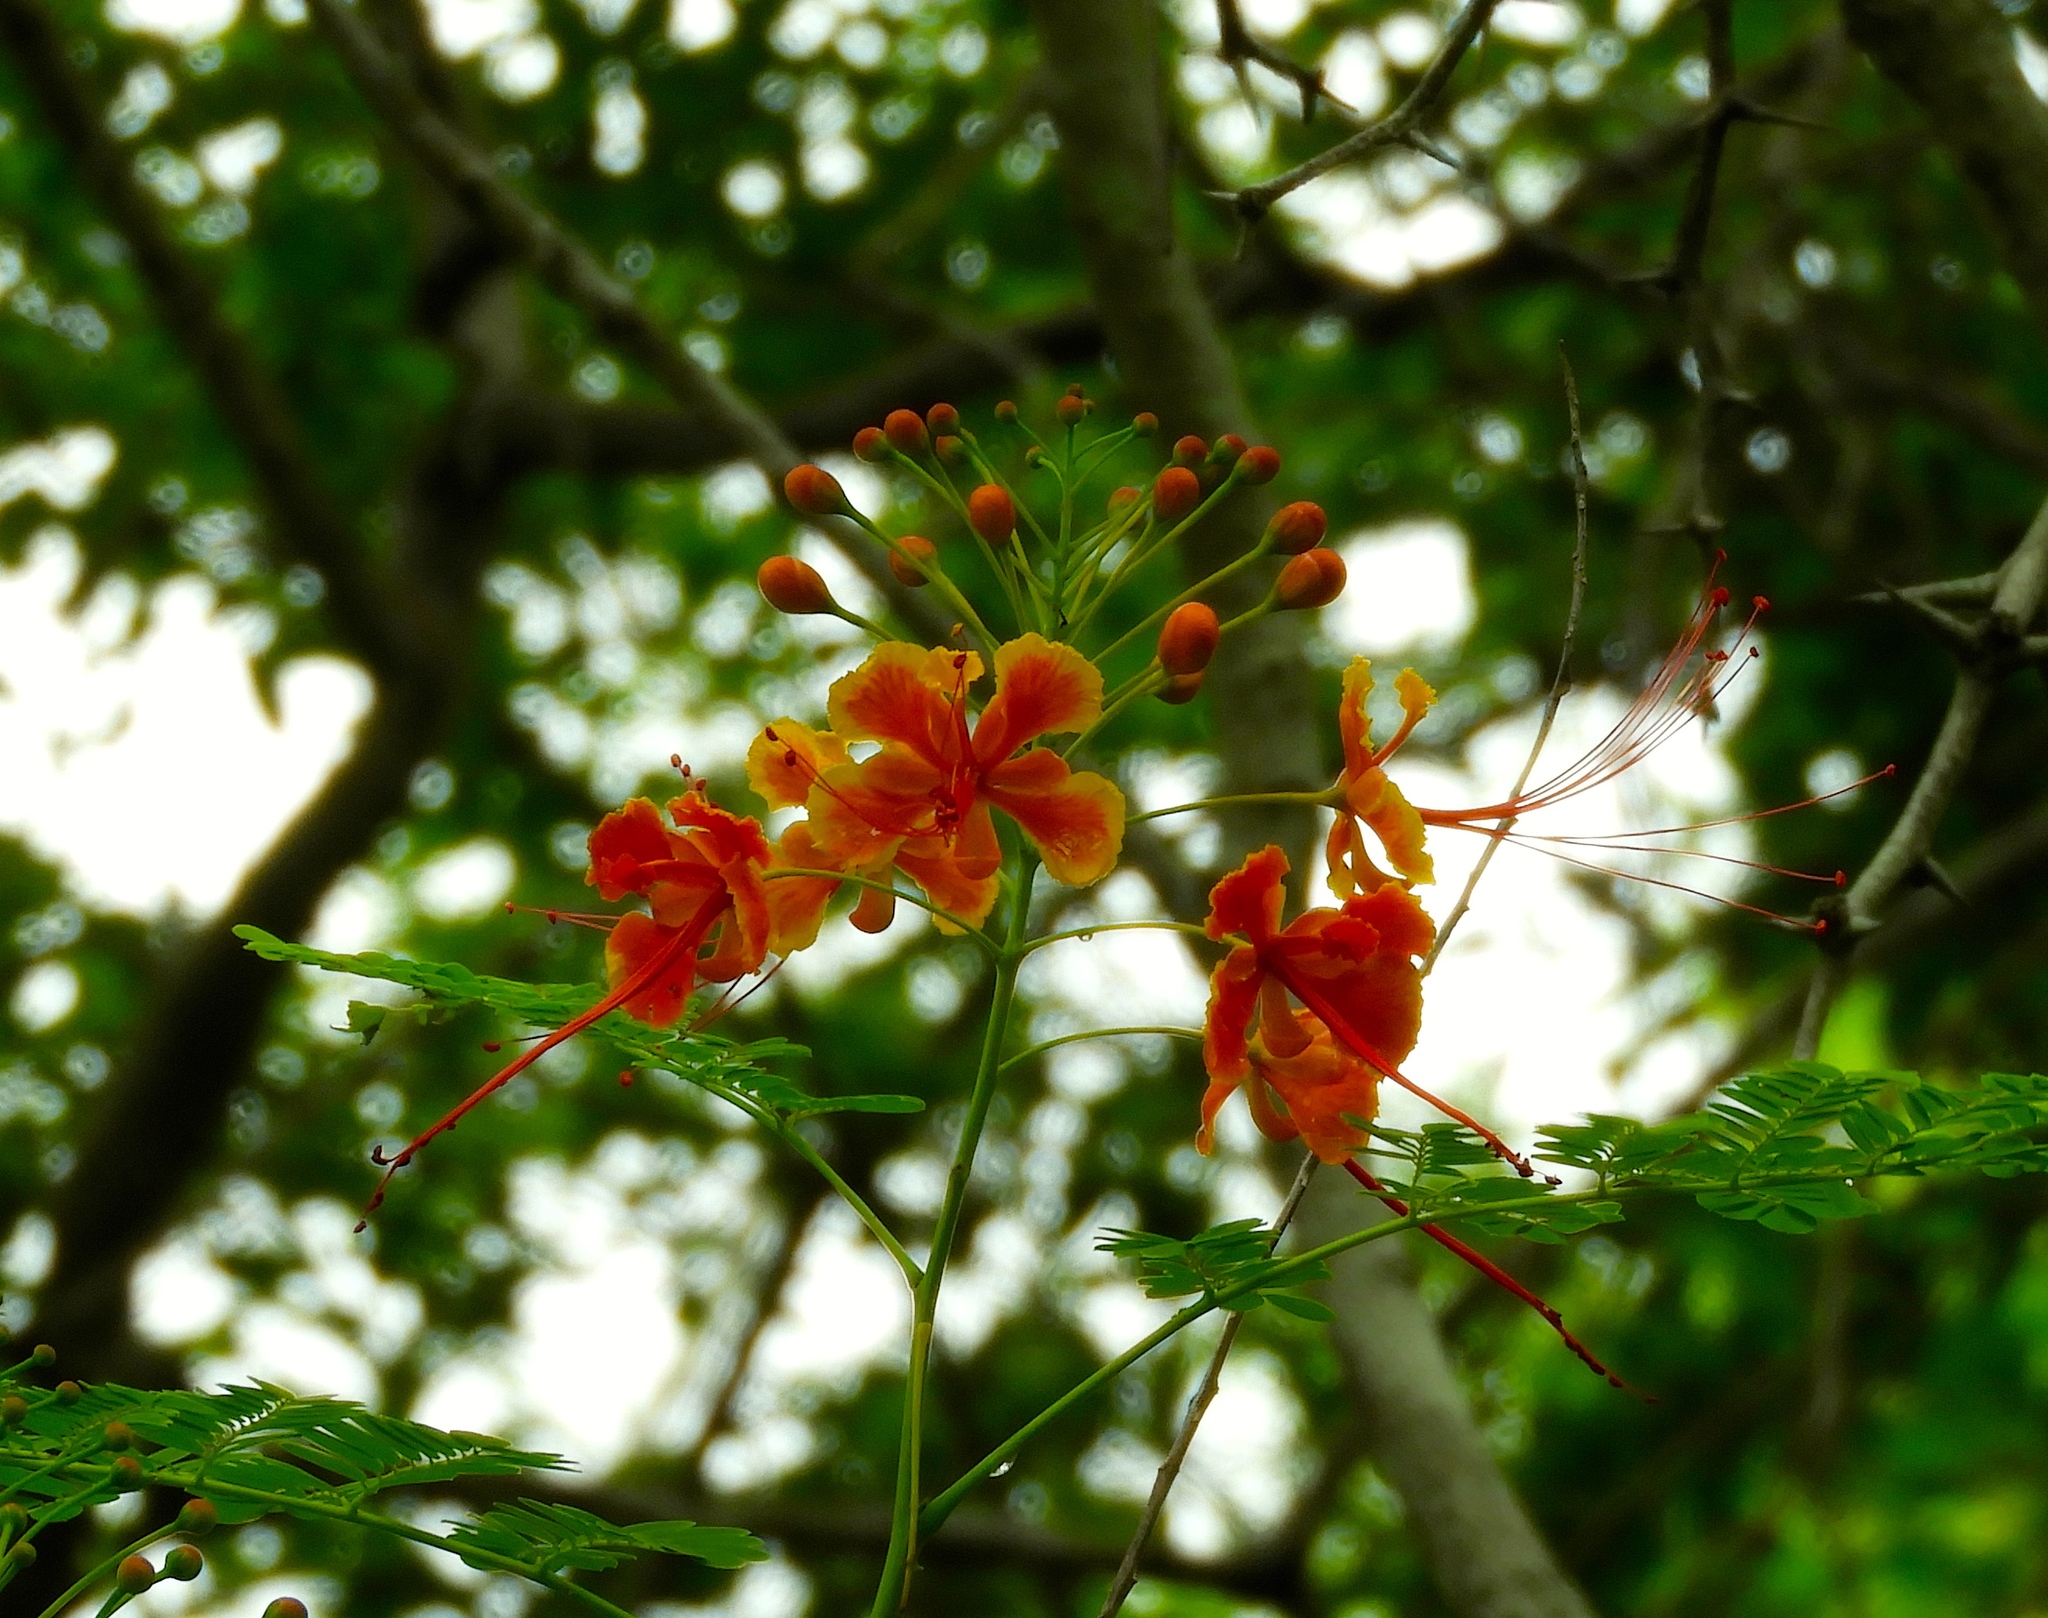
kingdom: Plantae
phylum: Tracheophyta
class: Magnoliopsida
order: Fabales
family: Fabaceae
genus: Caesalpinia
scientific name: Caesalpinia pulcherrima
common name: Pride-of-barbados
